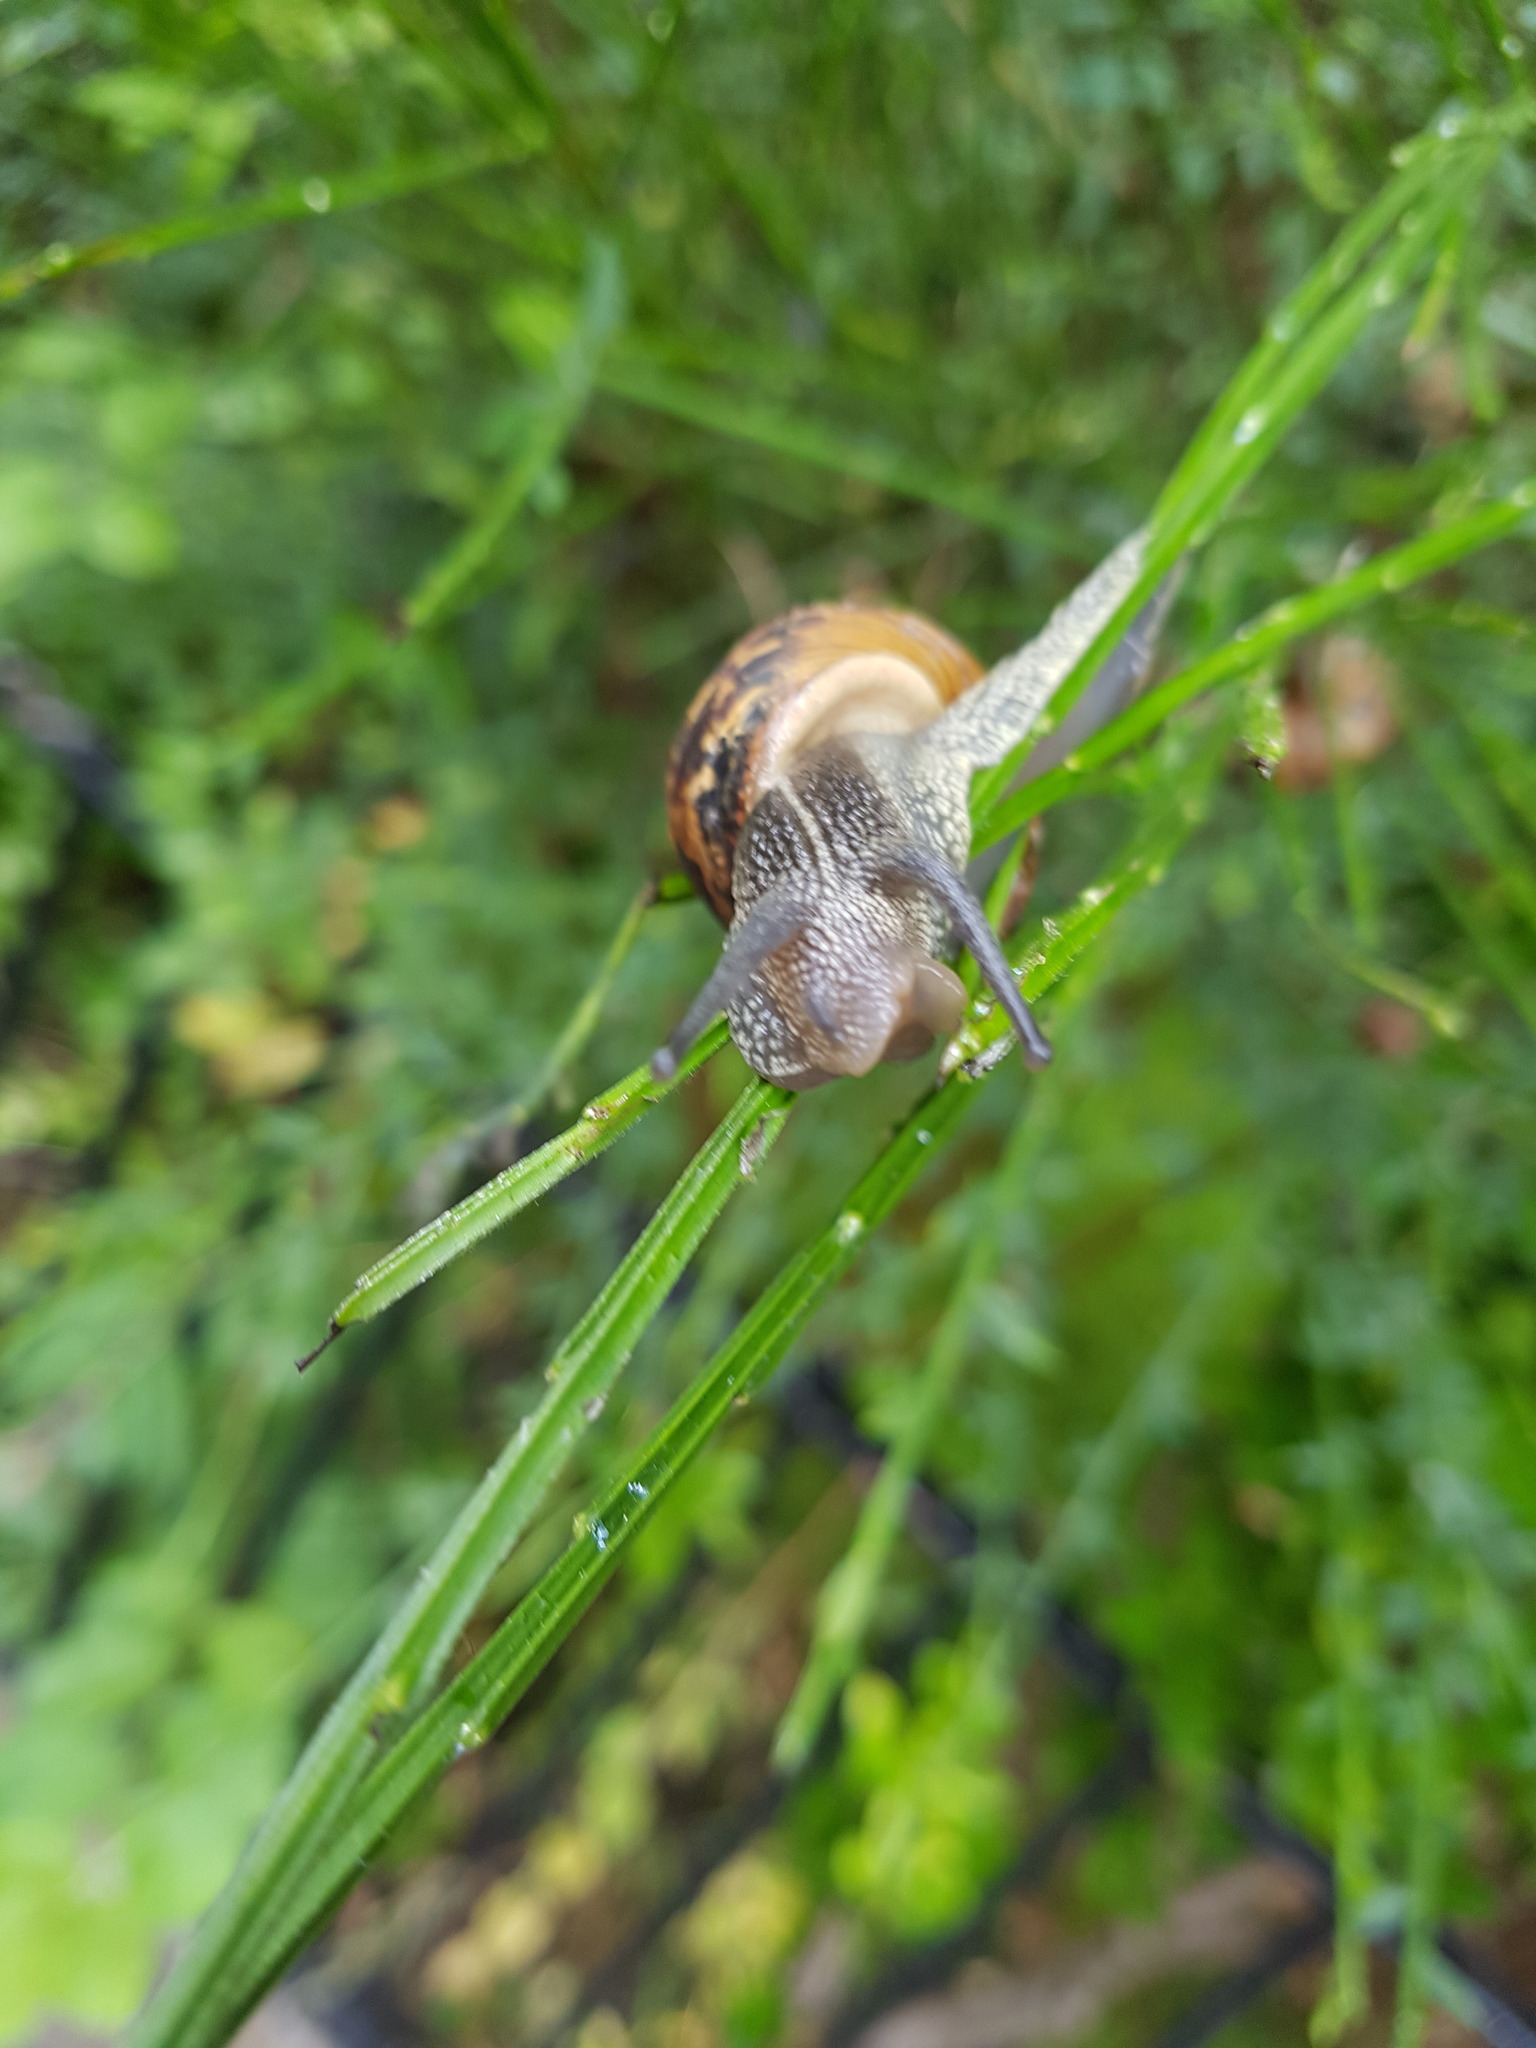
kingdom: Animalia
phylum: Mollusca
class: Gastropoda
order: Stylommatophora
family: Helicidae
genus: Cornu
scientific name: Cornu aspersum
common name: Brown garden snail
